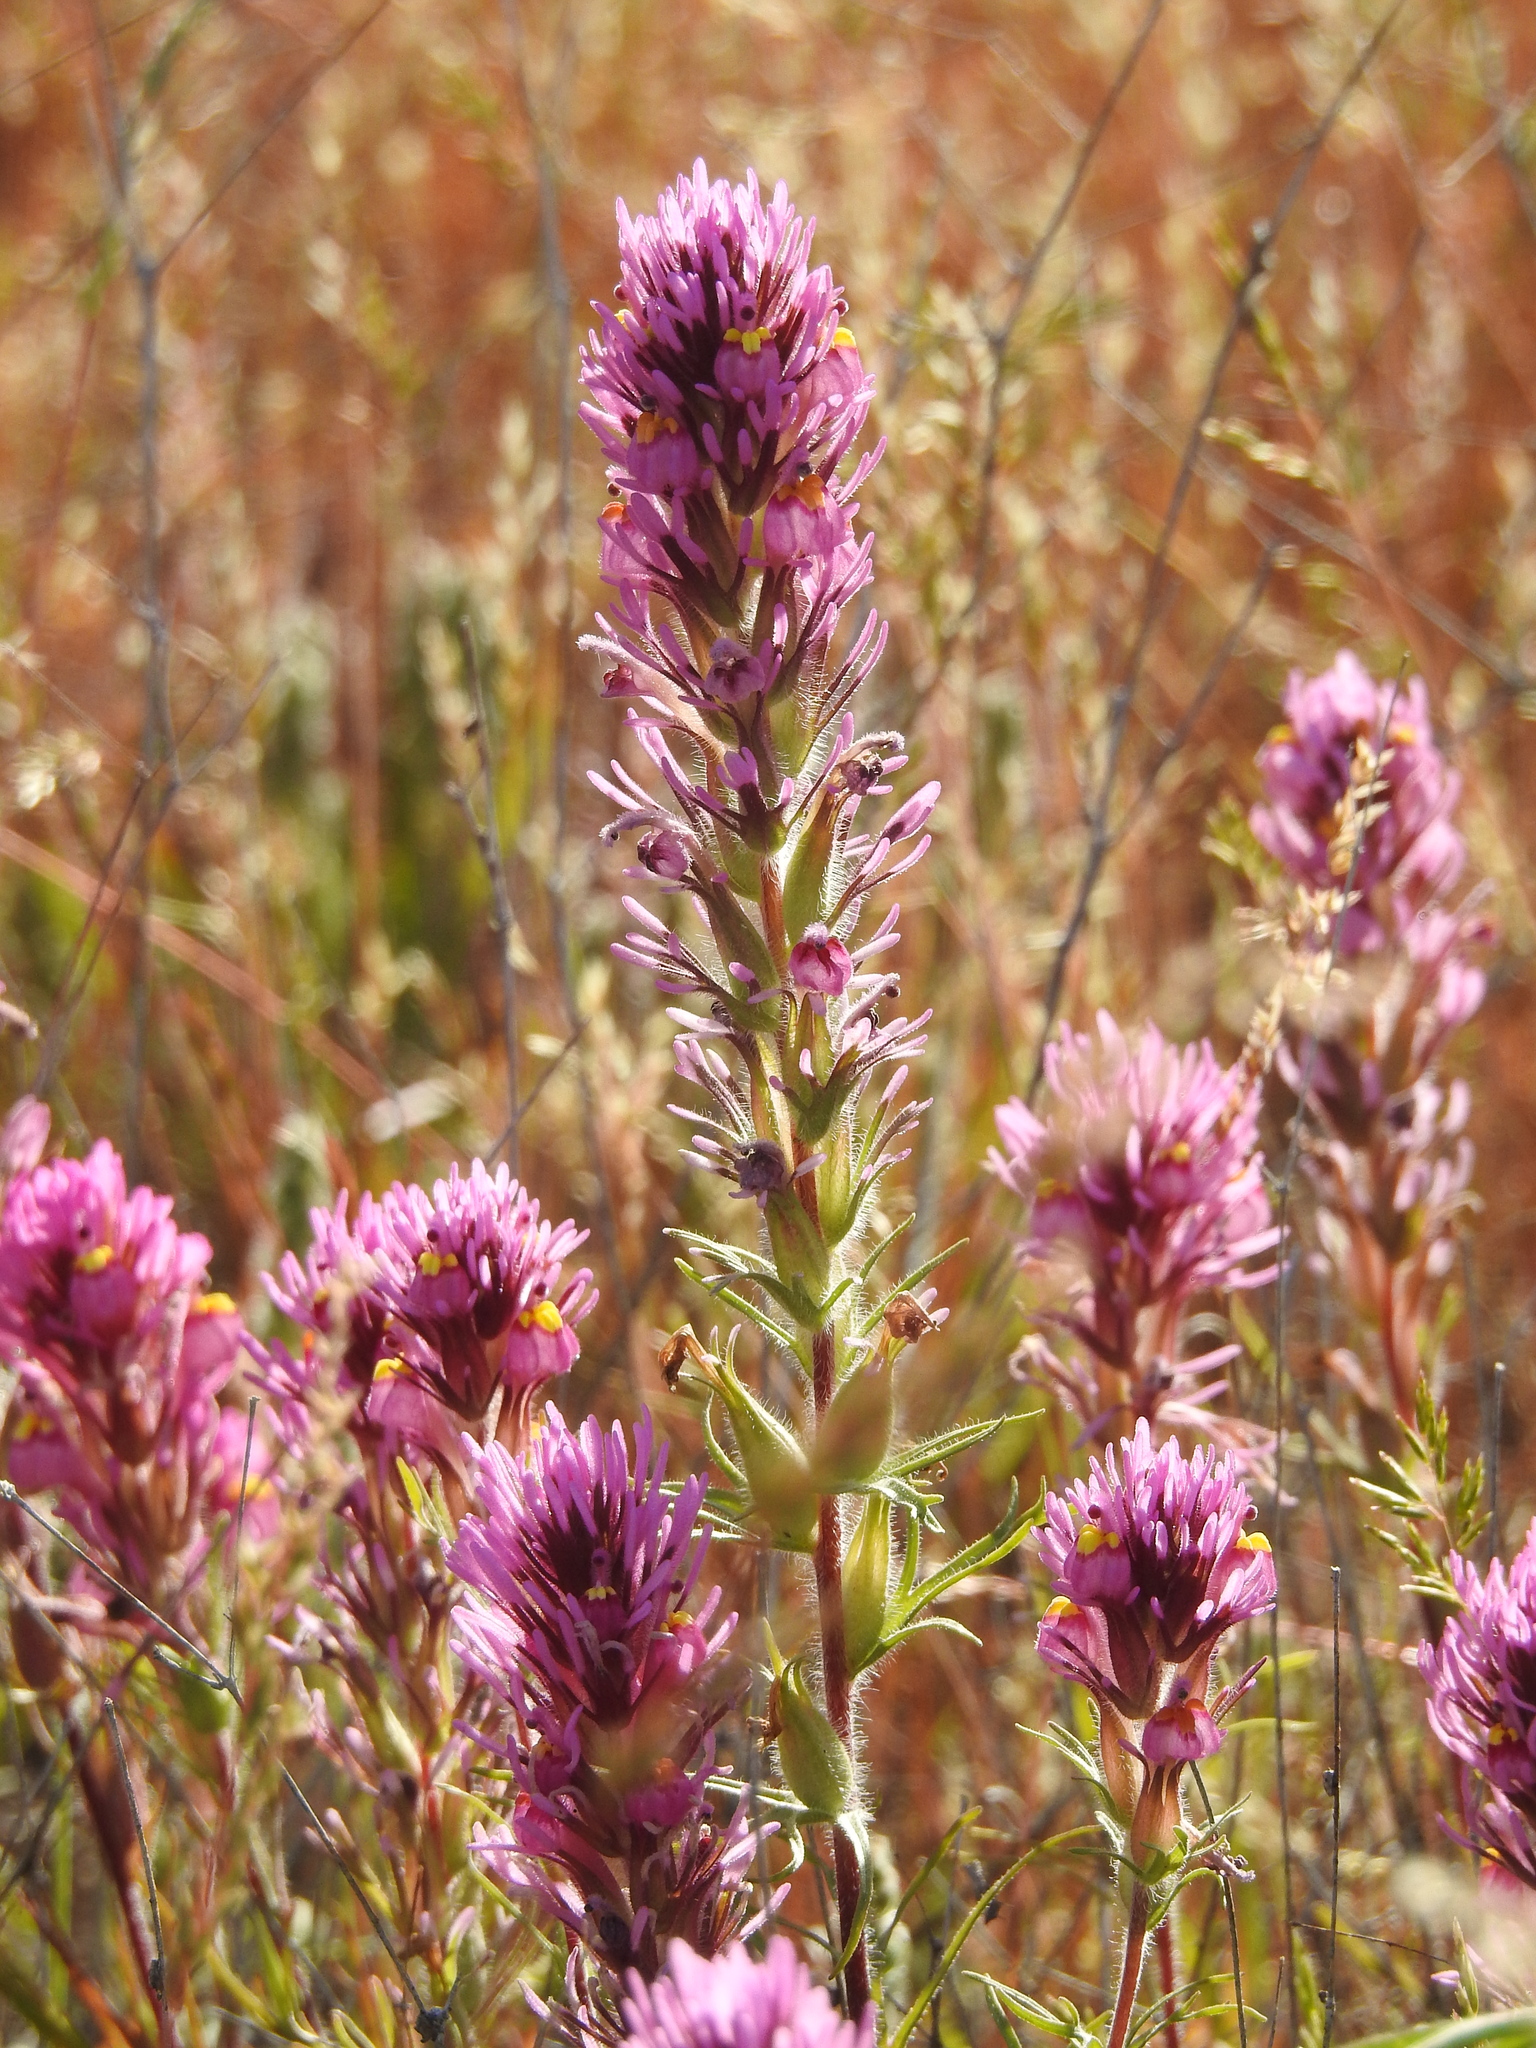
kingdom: Plantae
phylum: Tracheophyta
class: Magnoliopsida
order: Lamiales
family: Orobanchaceae
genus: Castilleja
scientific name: Castilleja exserta
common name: Purple owl-clover
